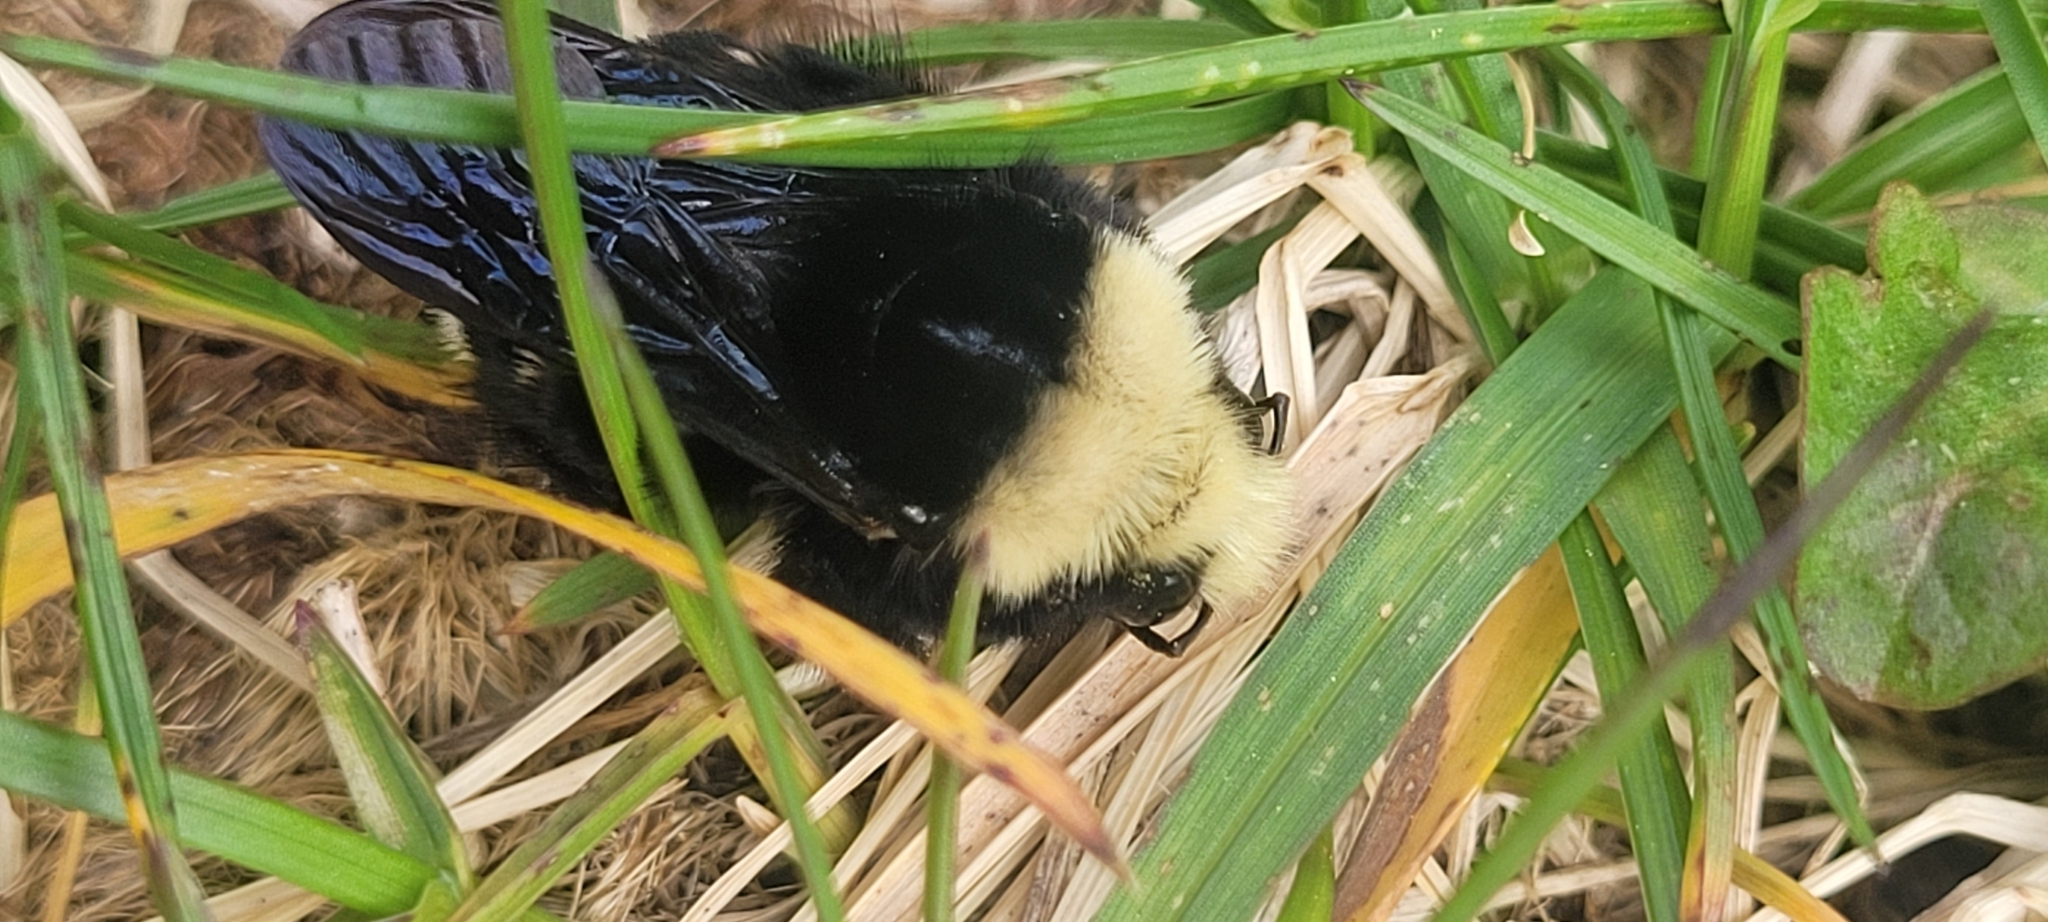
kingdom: Animalia
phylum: Arthropoda
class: Insecta
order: Hymenoptera
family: Apidae
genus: Bombus
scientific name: Bombus vosnesenskii
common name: Vosnesensky bumble bee
